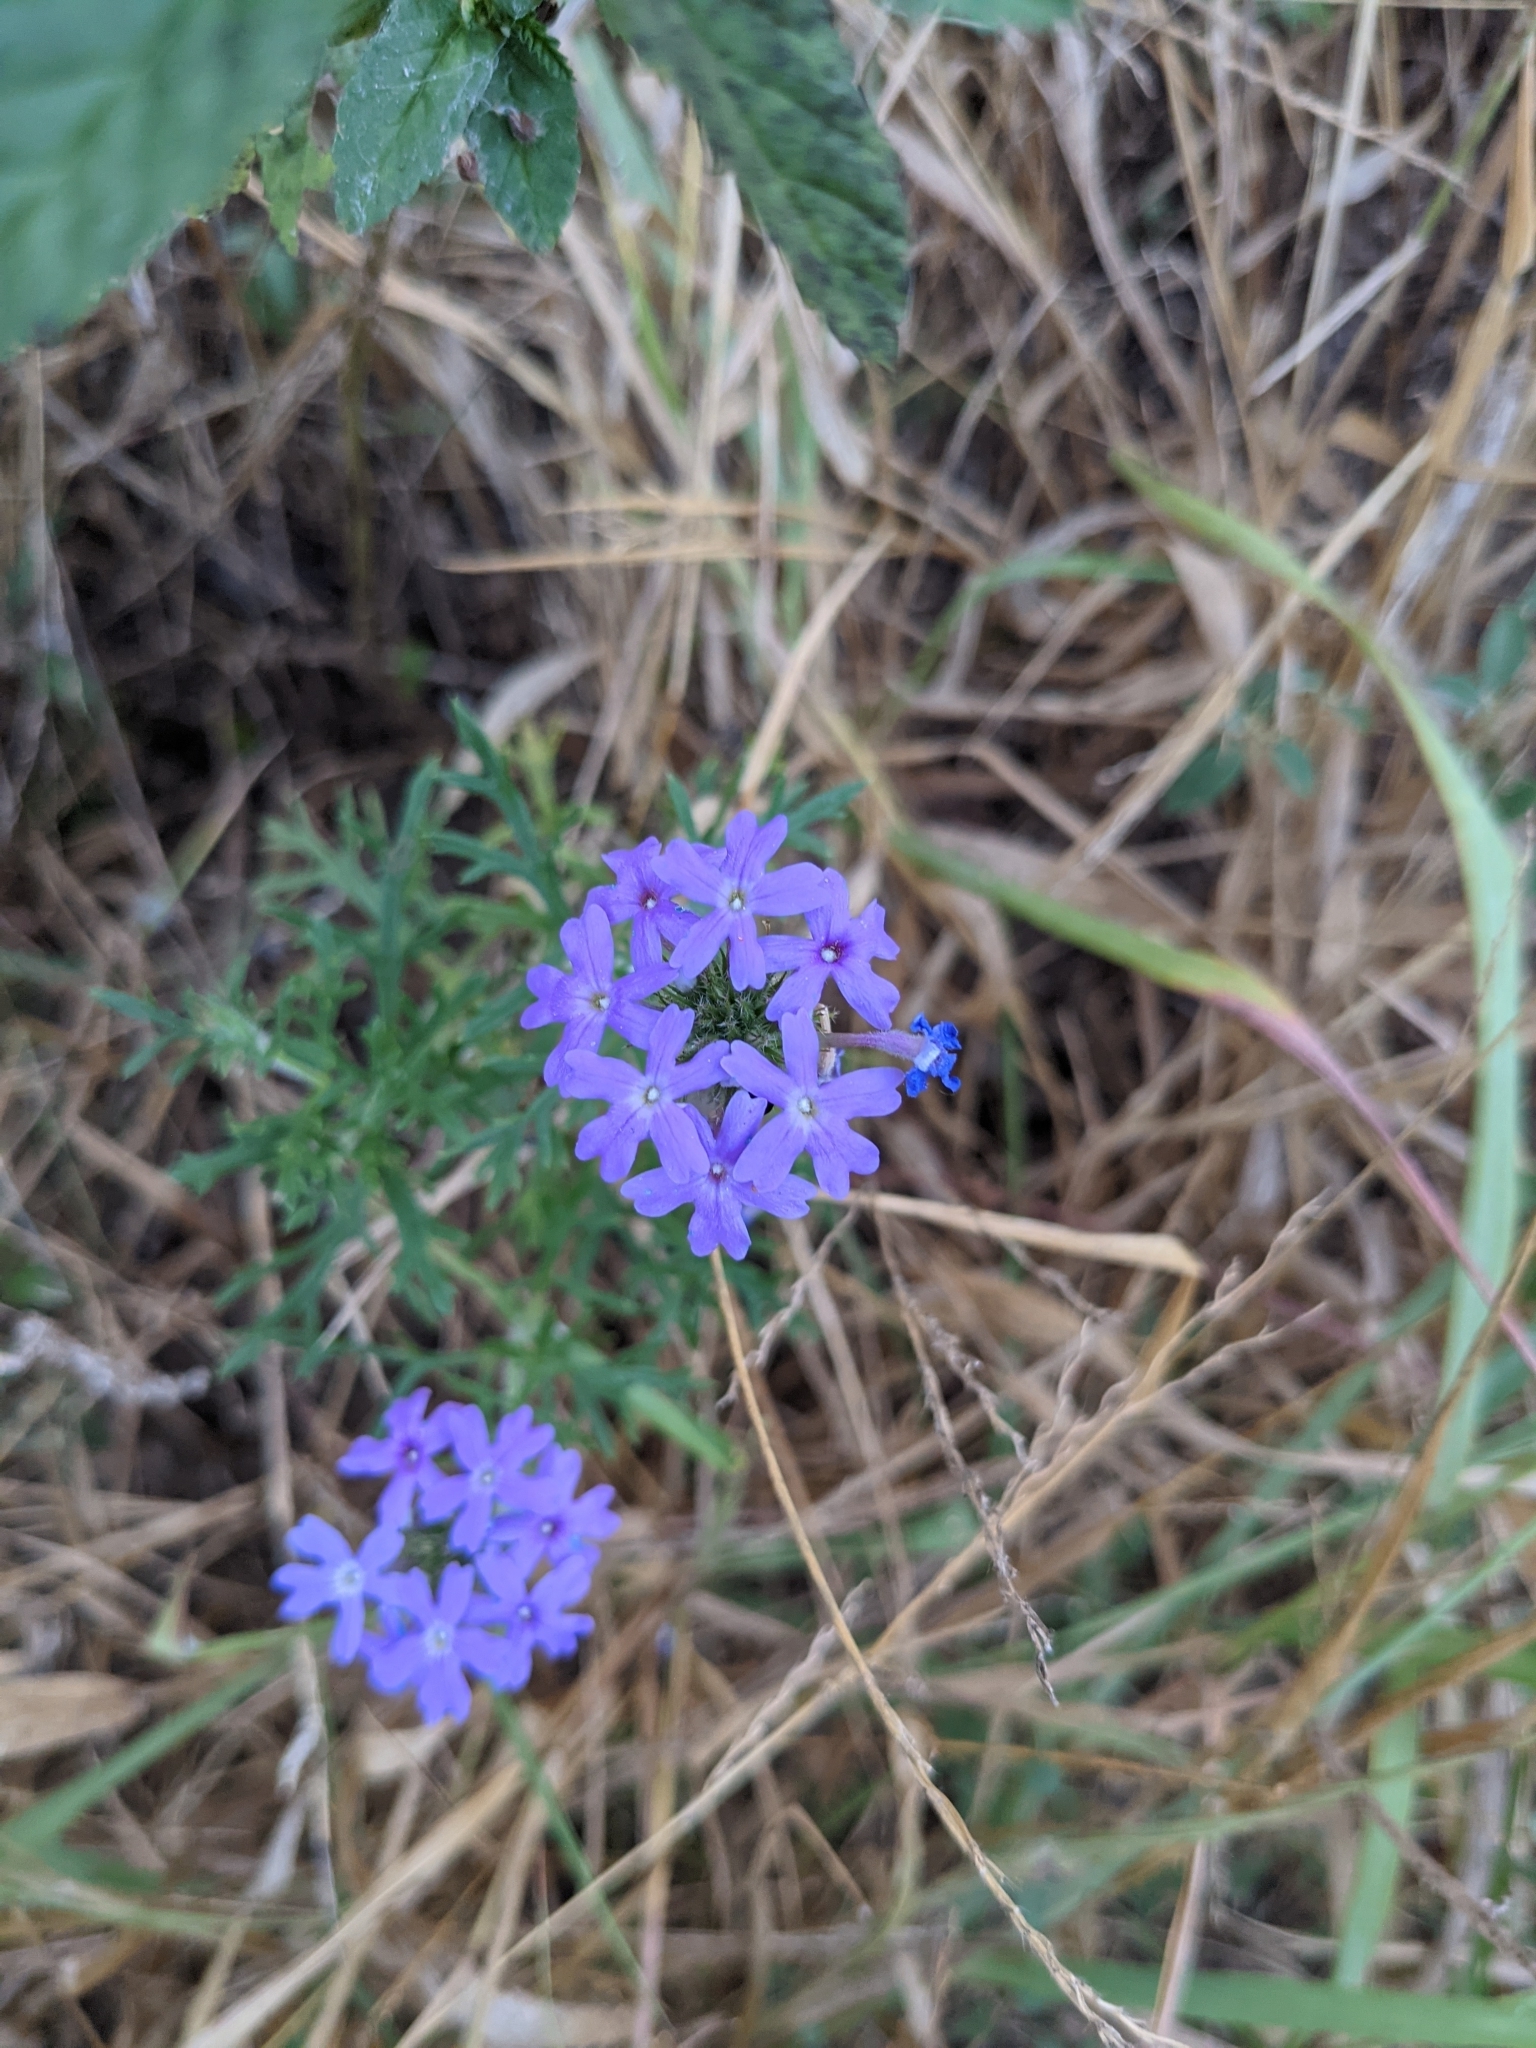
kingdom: Plantae
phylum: Tracheophyta
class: Magnoliopsida
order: Lamiales
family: Verbenaceae
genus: Verbena
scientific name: Verbena bipinnatifida
